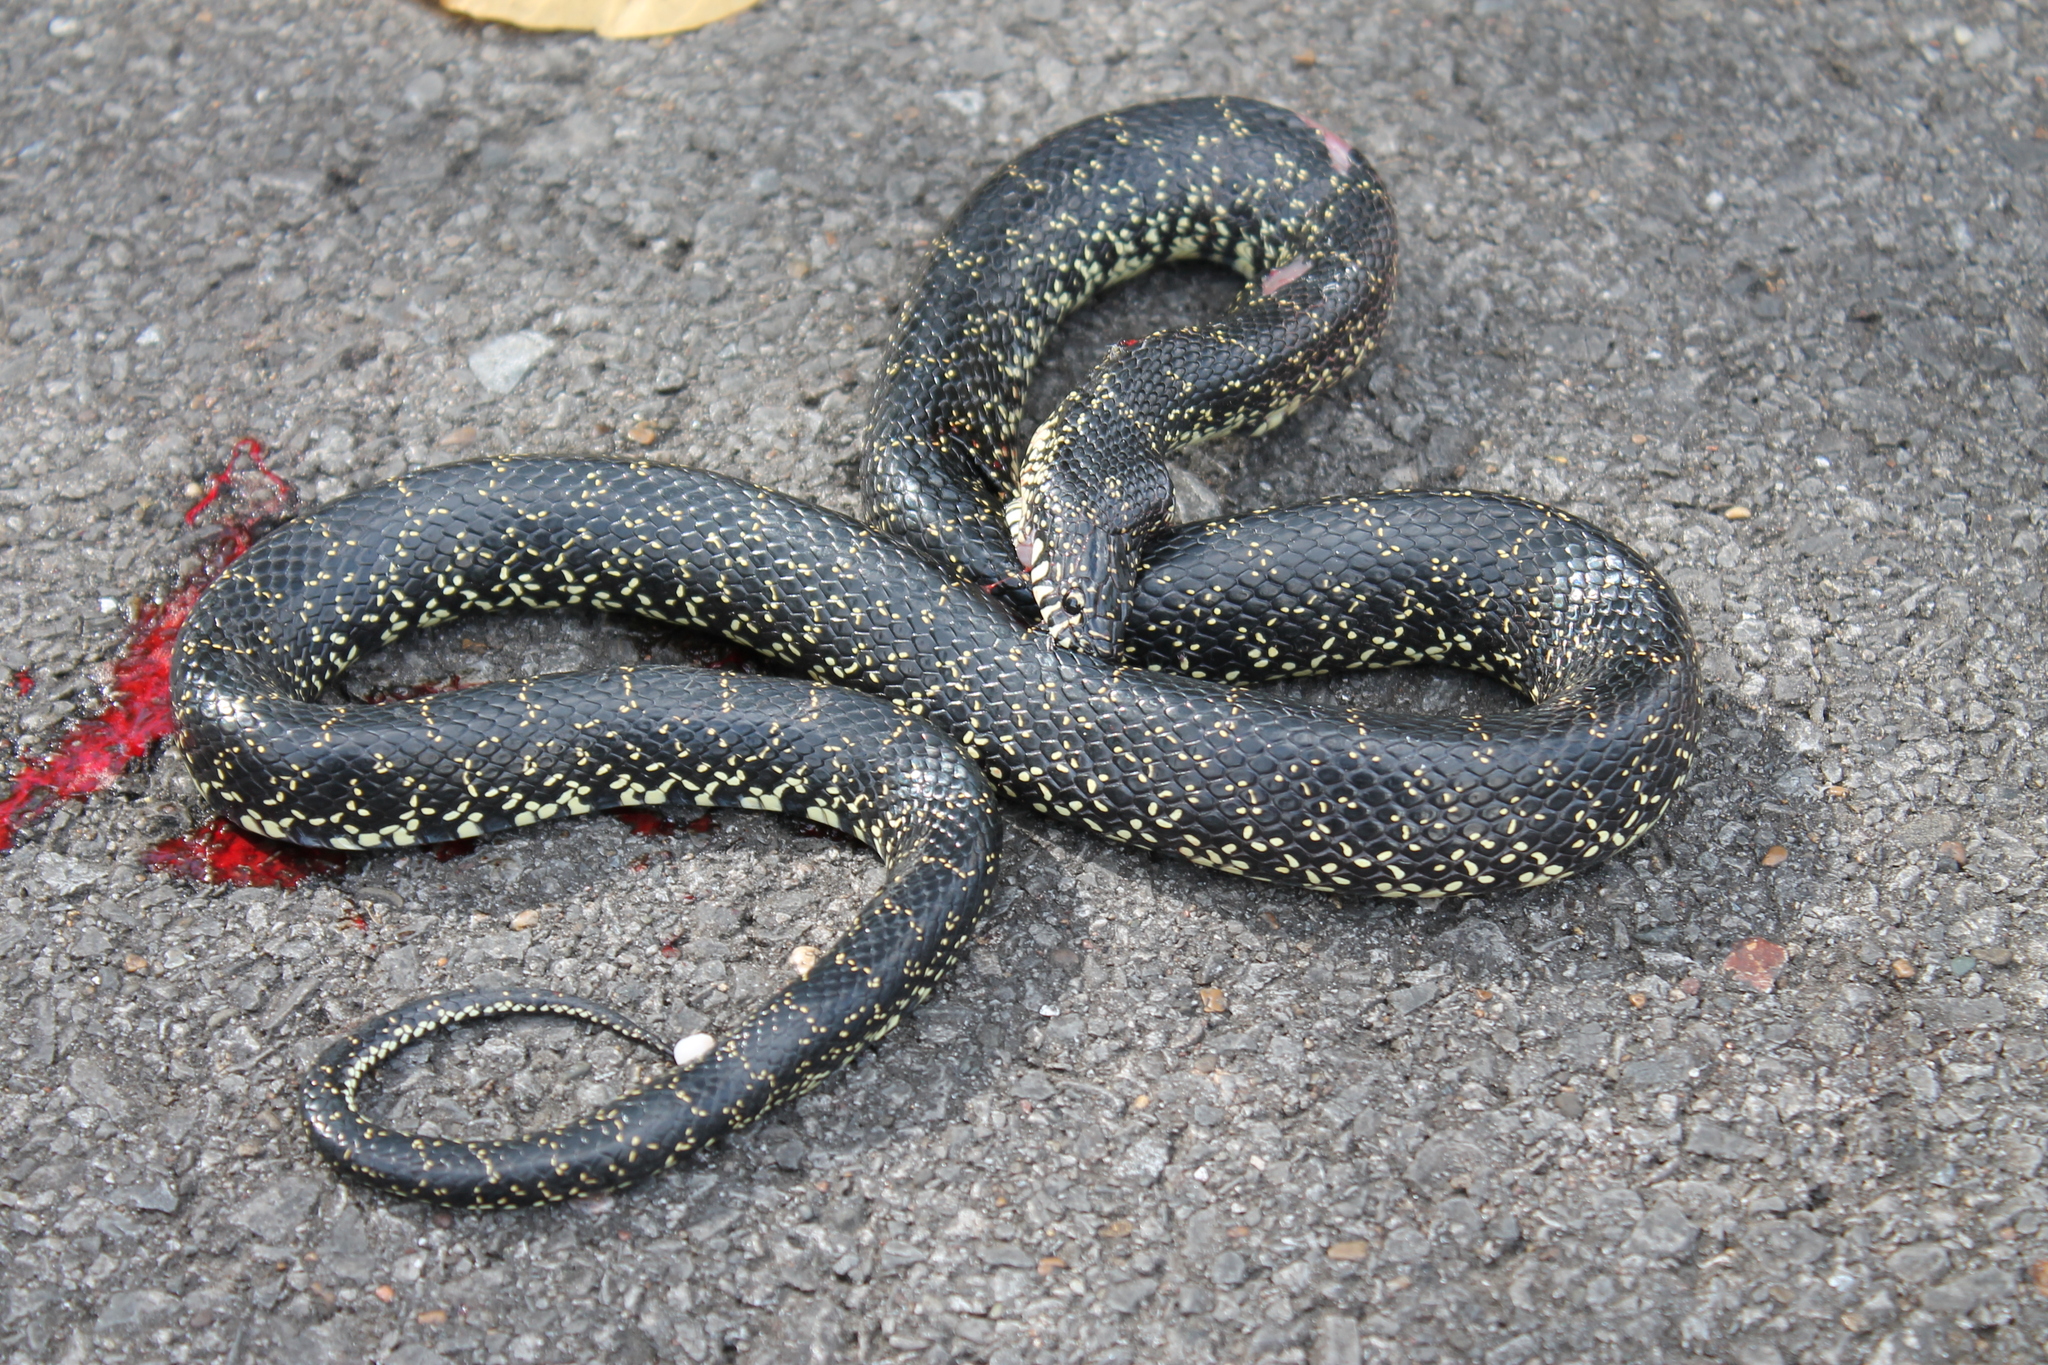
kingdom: Animalia
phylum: Chordata
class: Squamata
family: Colubridae
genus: Lampropeltis
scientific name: Lampropeltis nigra
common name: Black kingsnake
